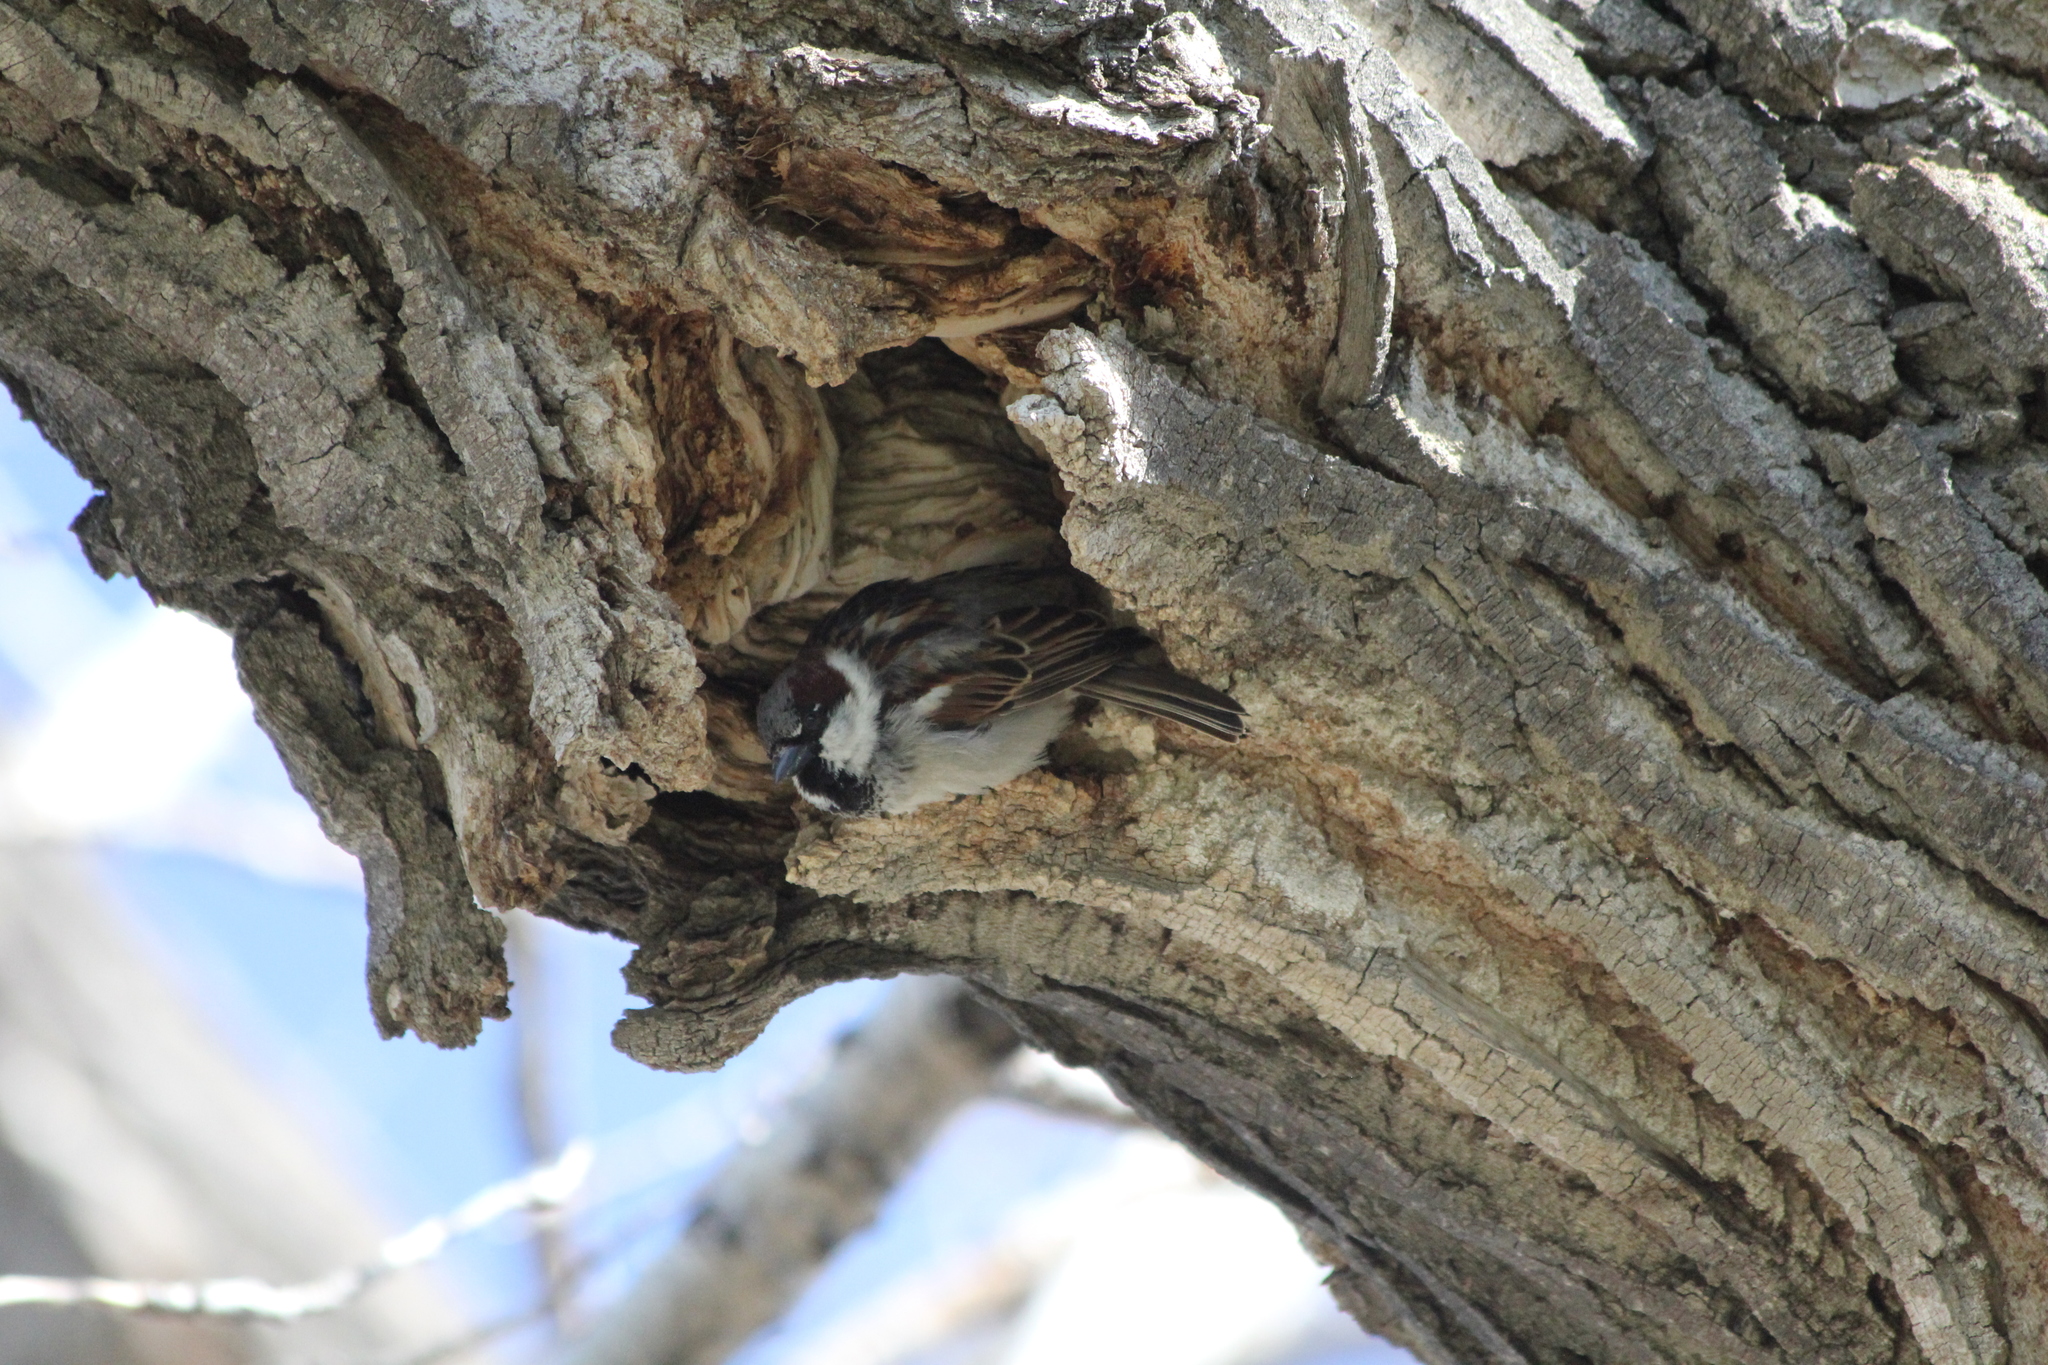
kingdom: Animalia
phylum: Chordata
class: Aves
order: Passeriformes
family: Passeridae
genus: Passer
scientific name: Passer domesticus
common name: House sparrow
